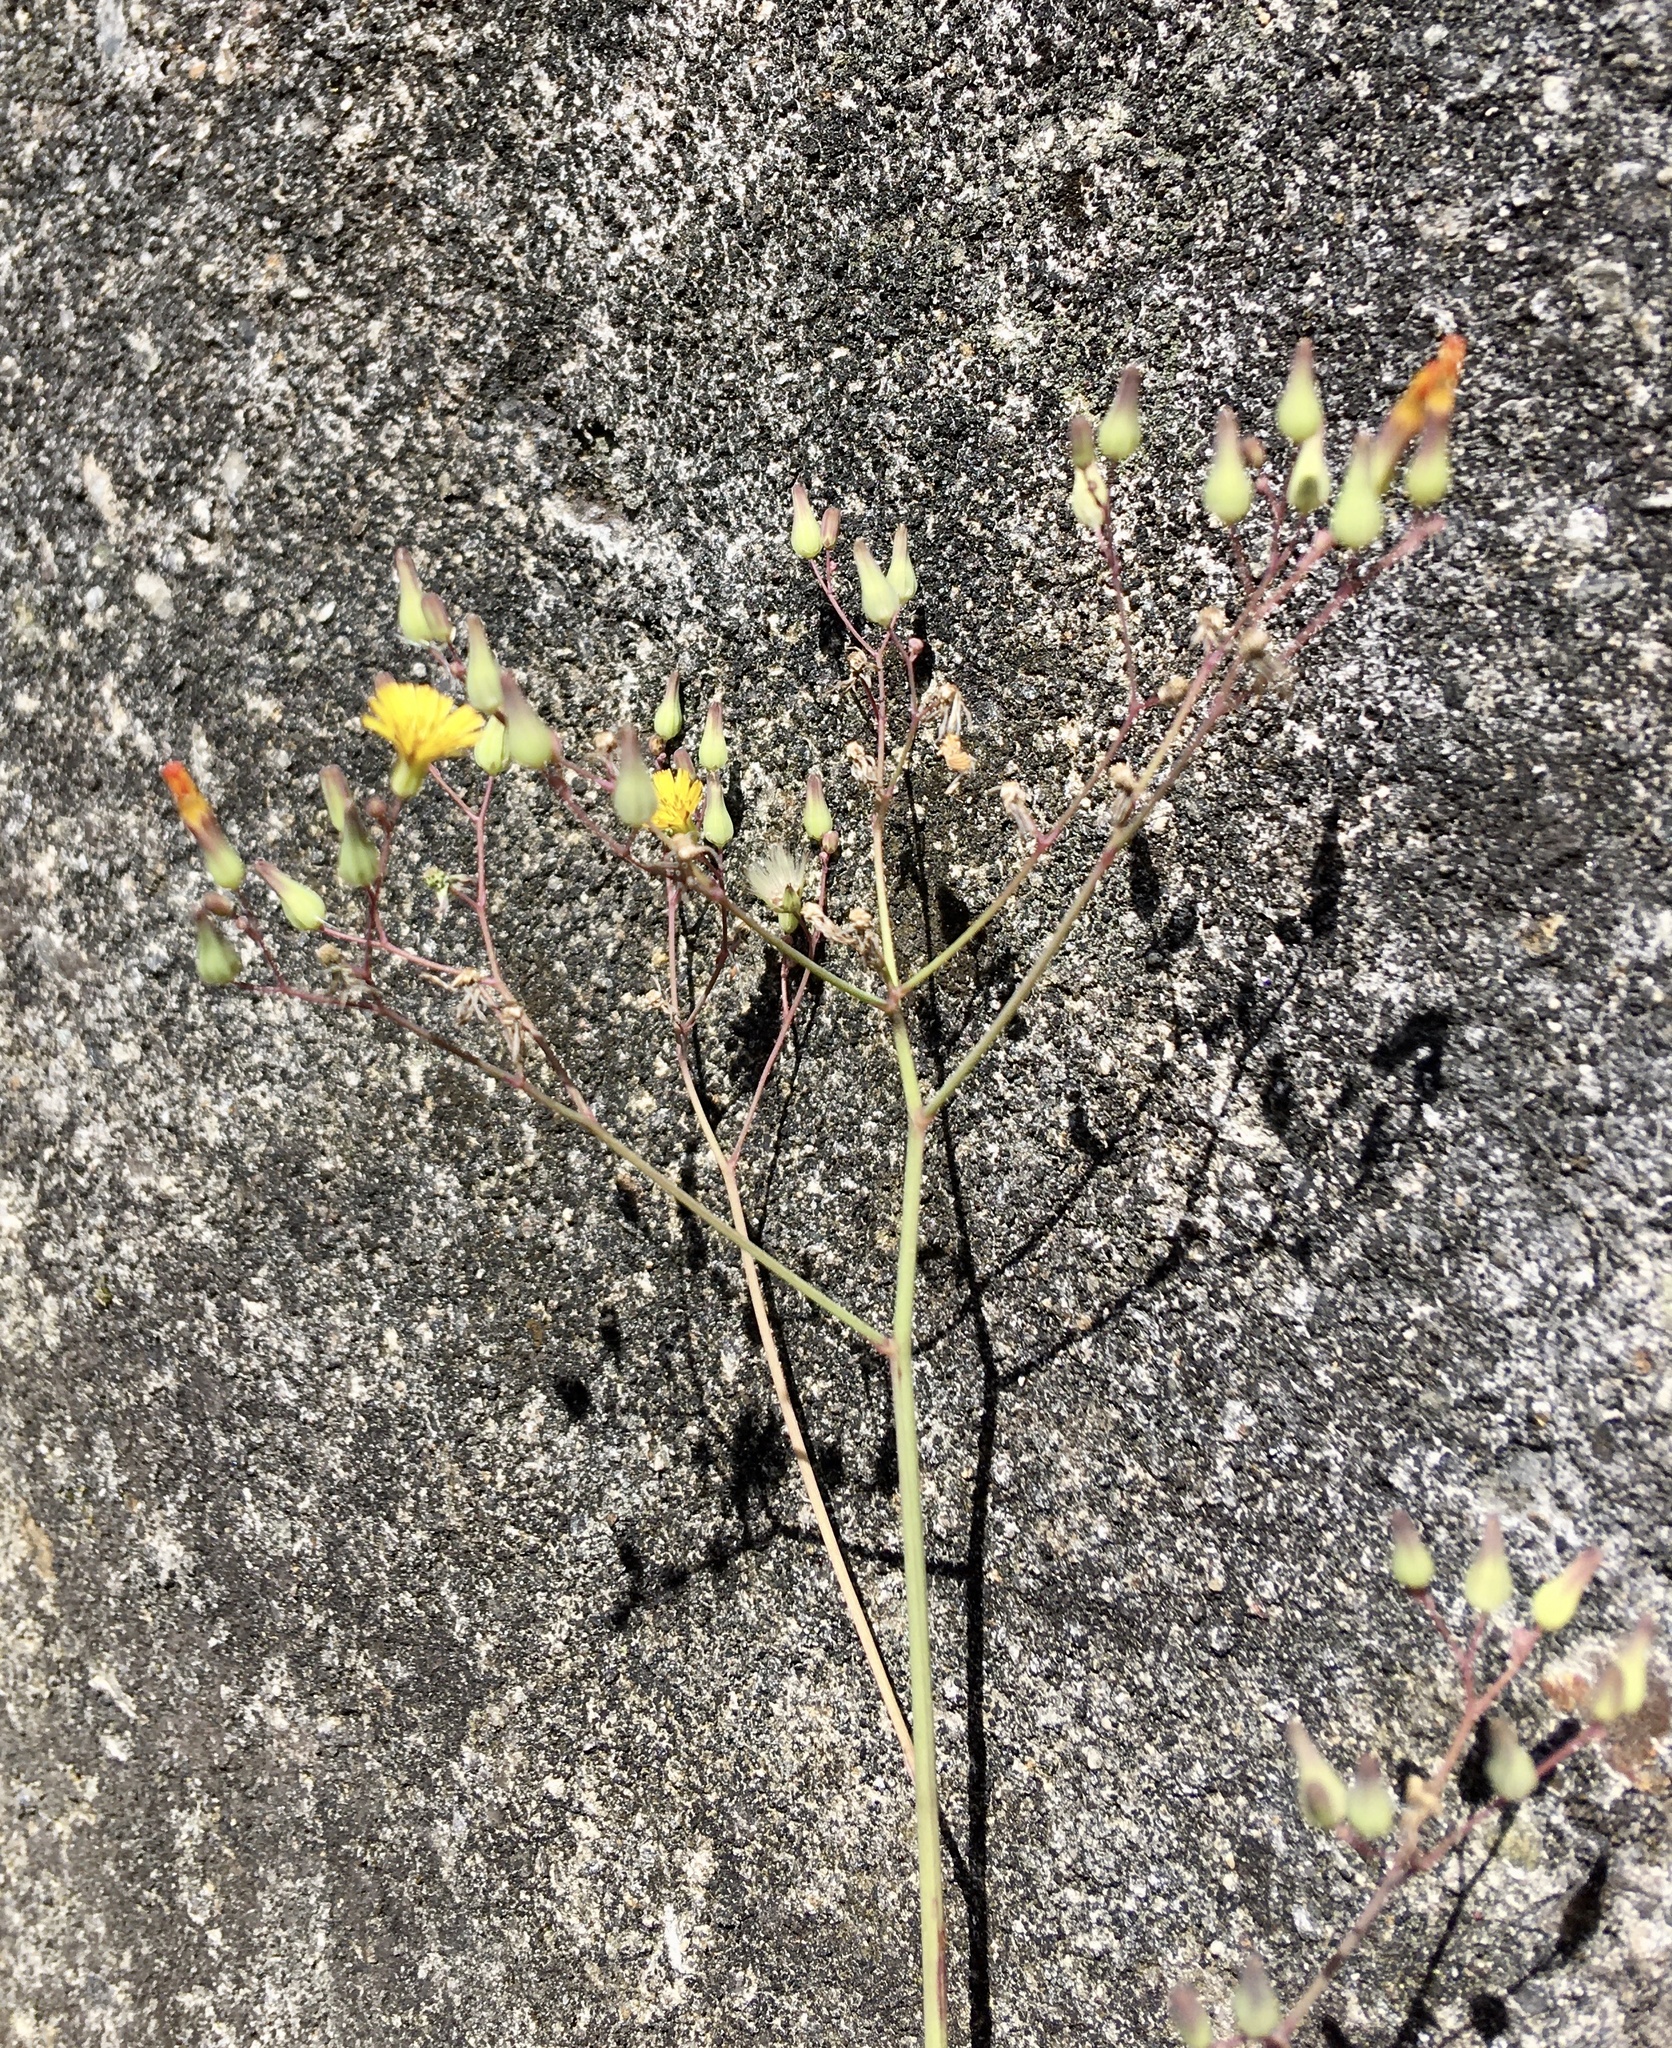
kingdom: Plantae
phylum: Tracheophyta
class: Magnoliopsida
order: Asterales
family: Asteraceae
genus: Youngia
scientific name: Youngia japonica
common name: Oriental false hawksbeard
